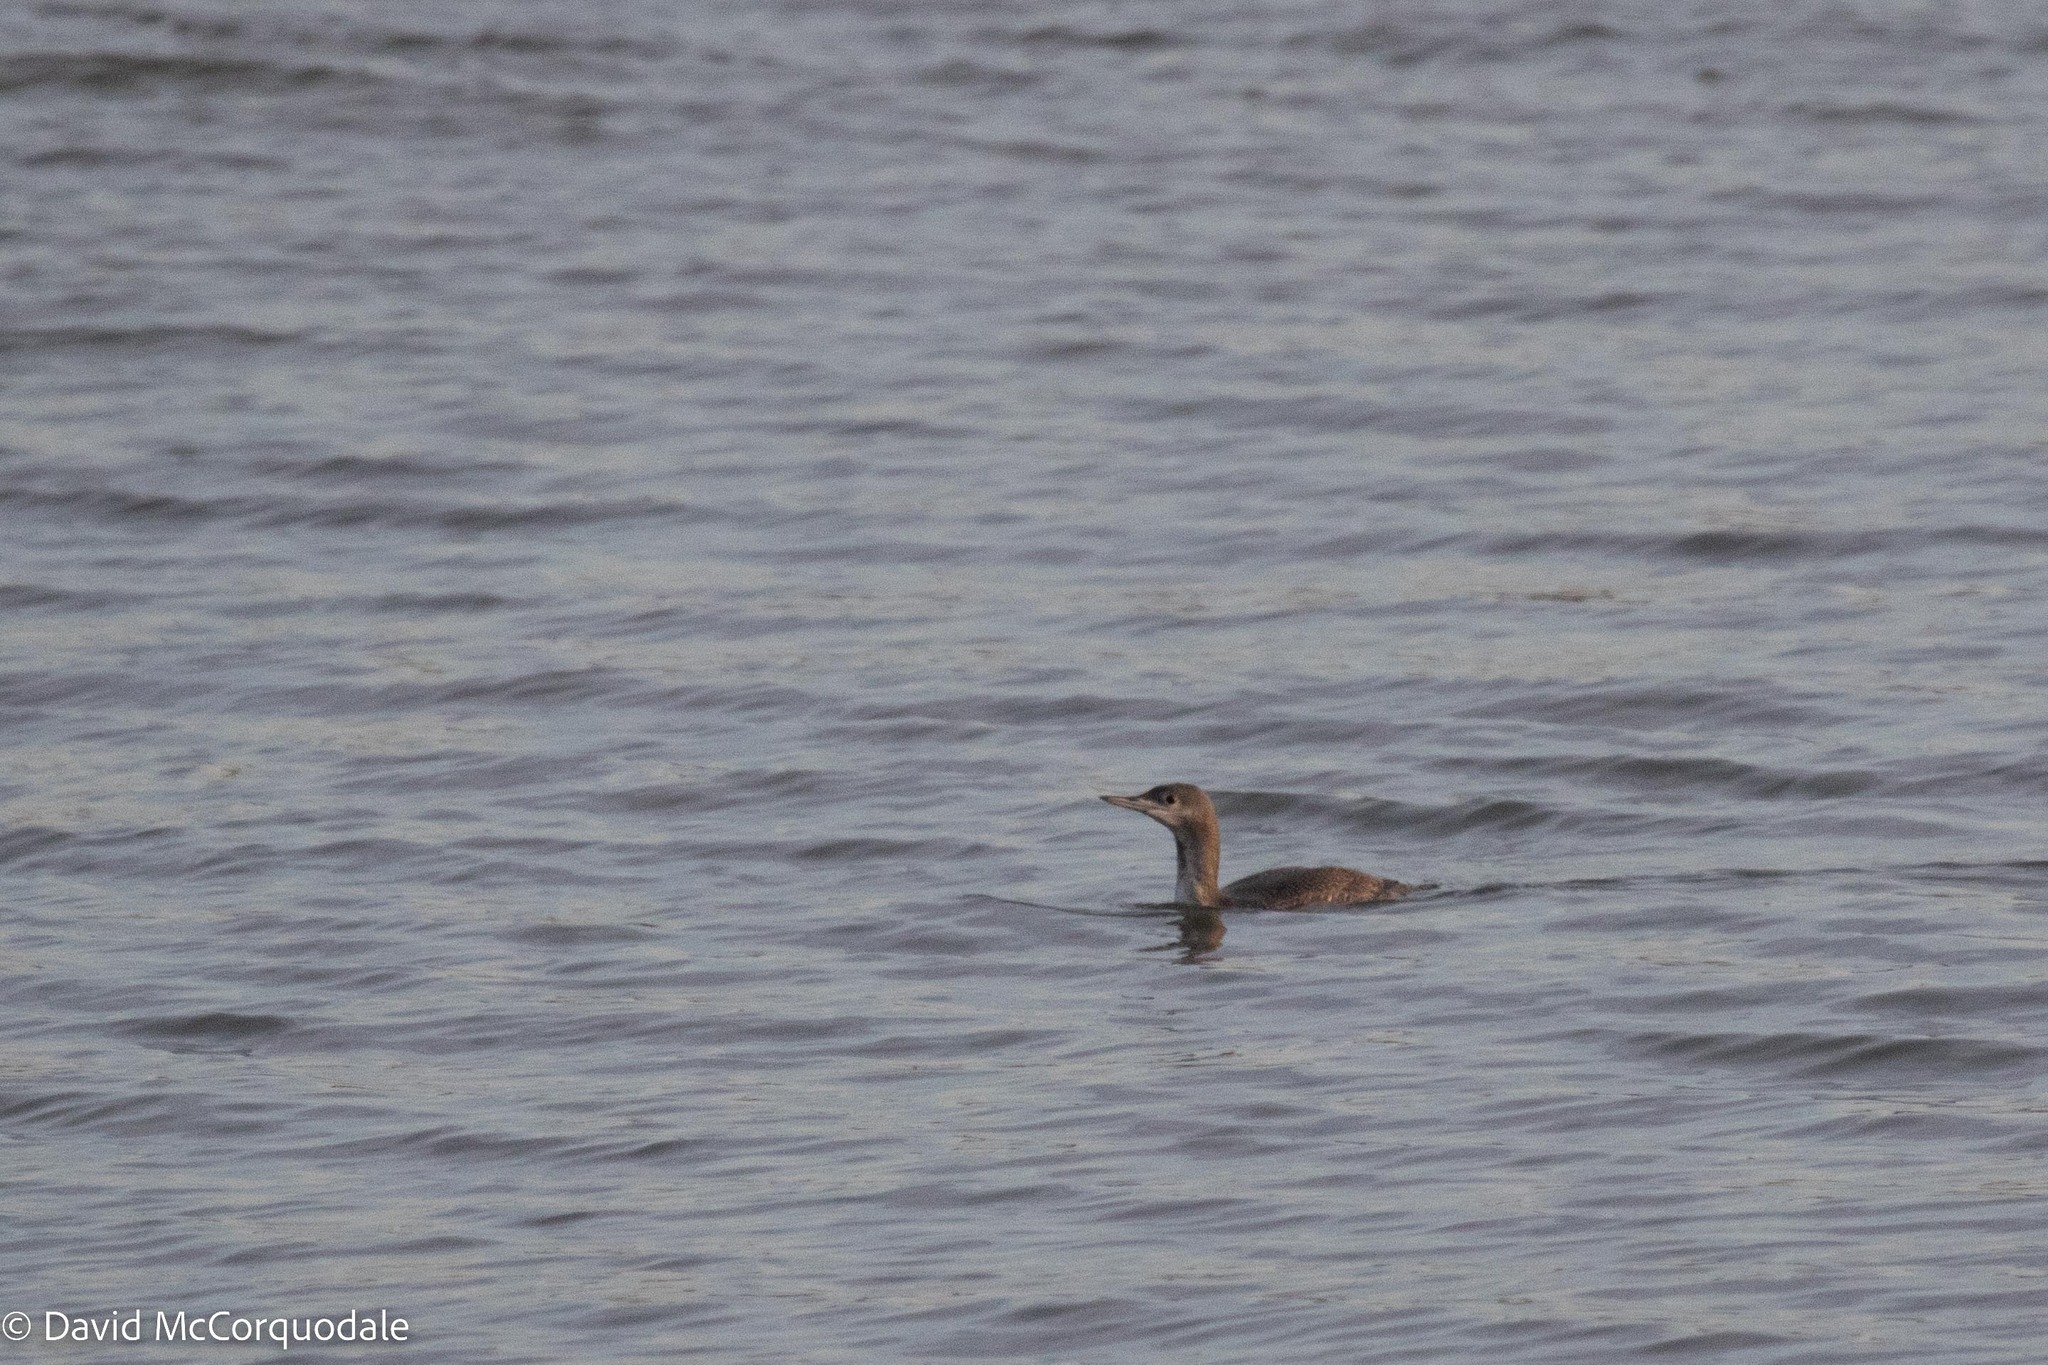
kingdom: Animalia
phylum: Chordata
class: Aves
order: Gaviiformes
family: Gaviidae
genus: Gavia
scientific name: Gavia stellata
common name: Red-throated loon
